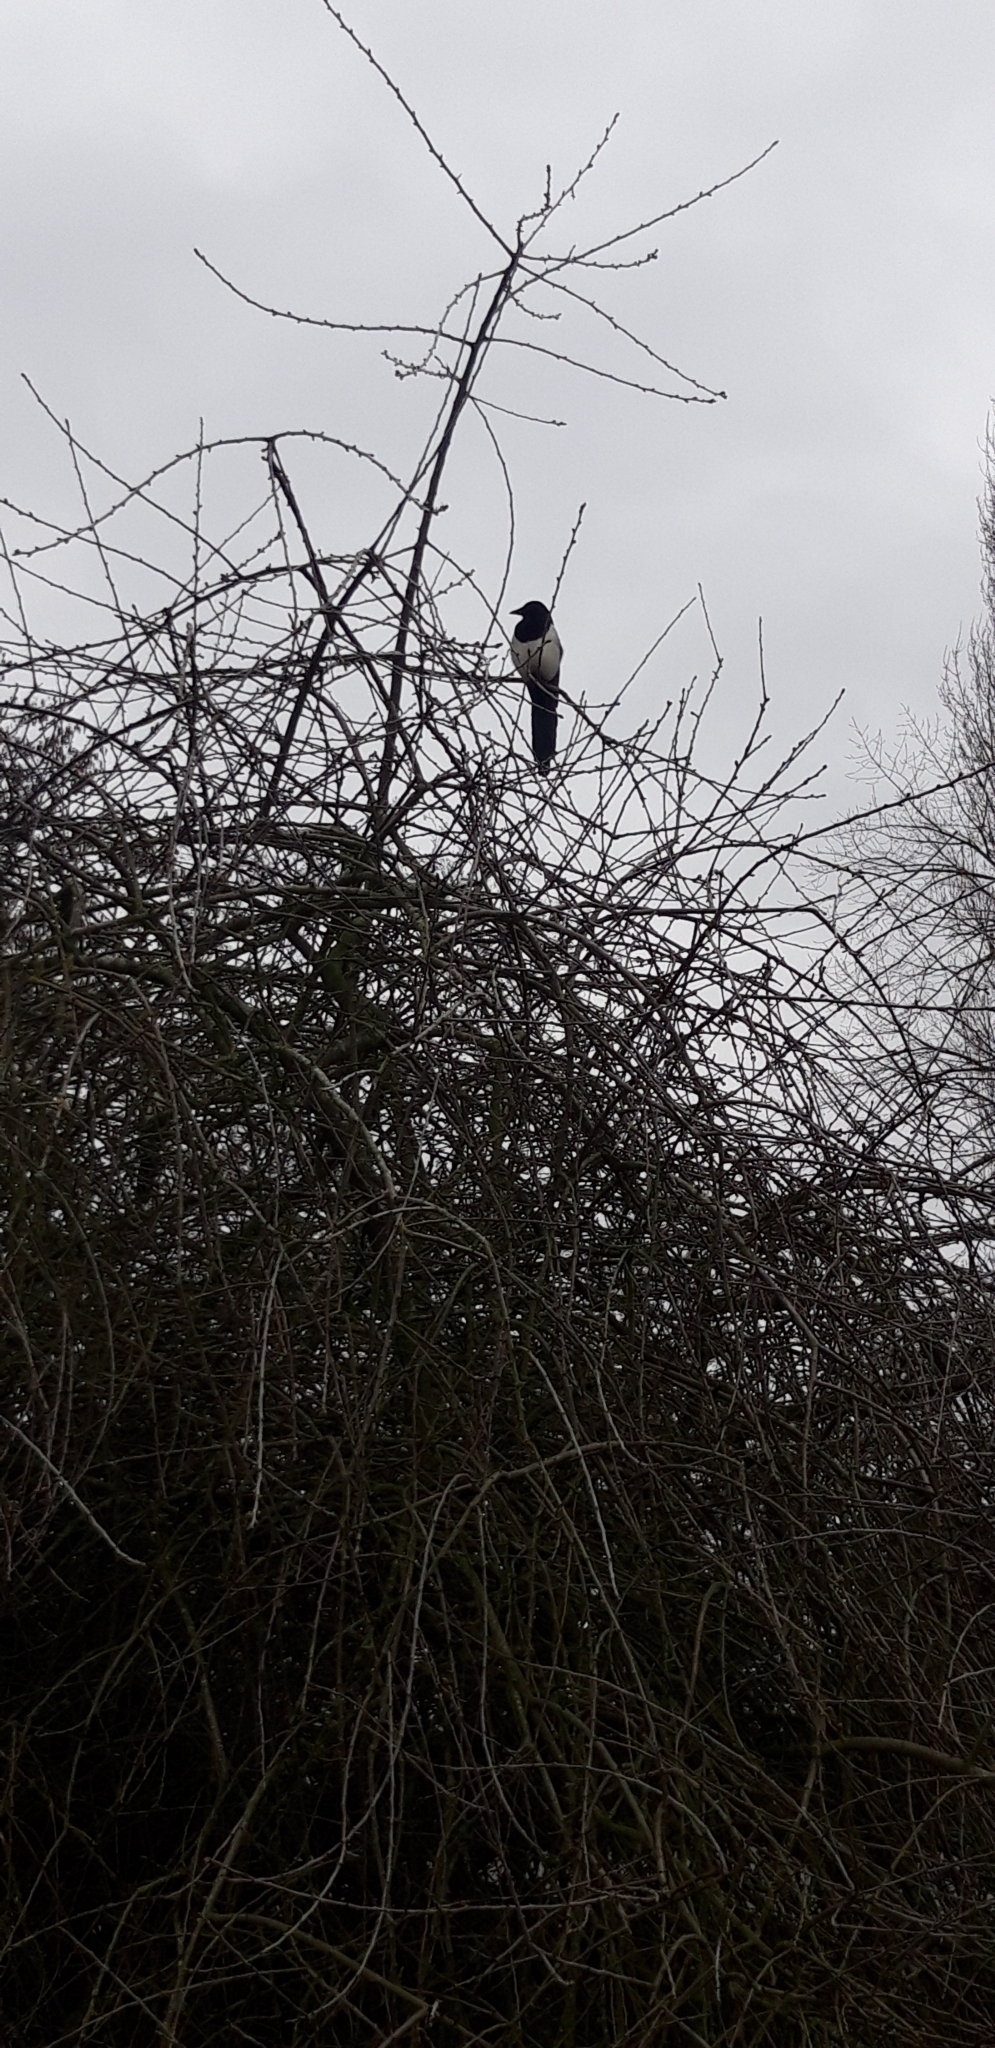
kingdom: Animalia
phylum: Chordata
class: Aves
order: Passeriformes
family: Corvidae
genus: Pica
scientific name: Pica pica
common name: Eurasian magpie
